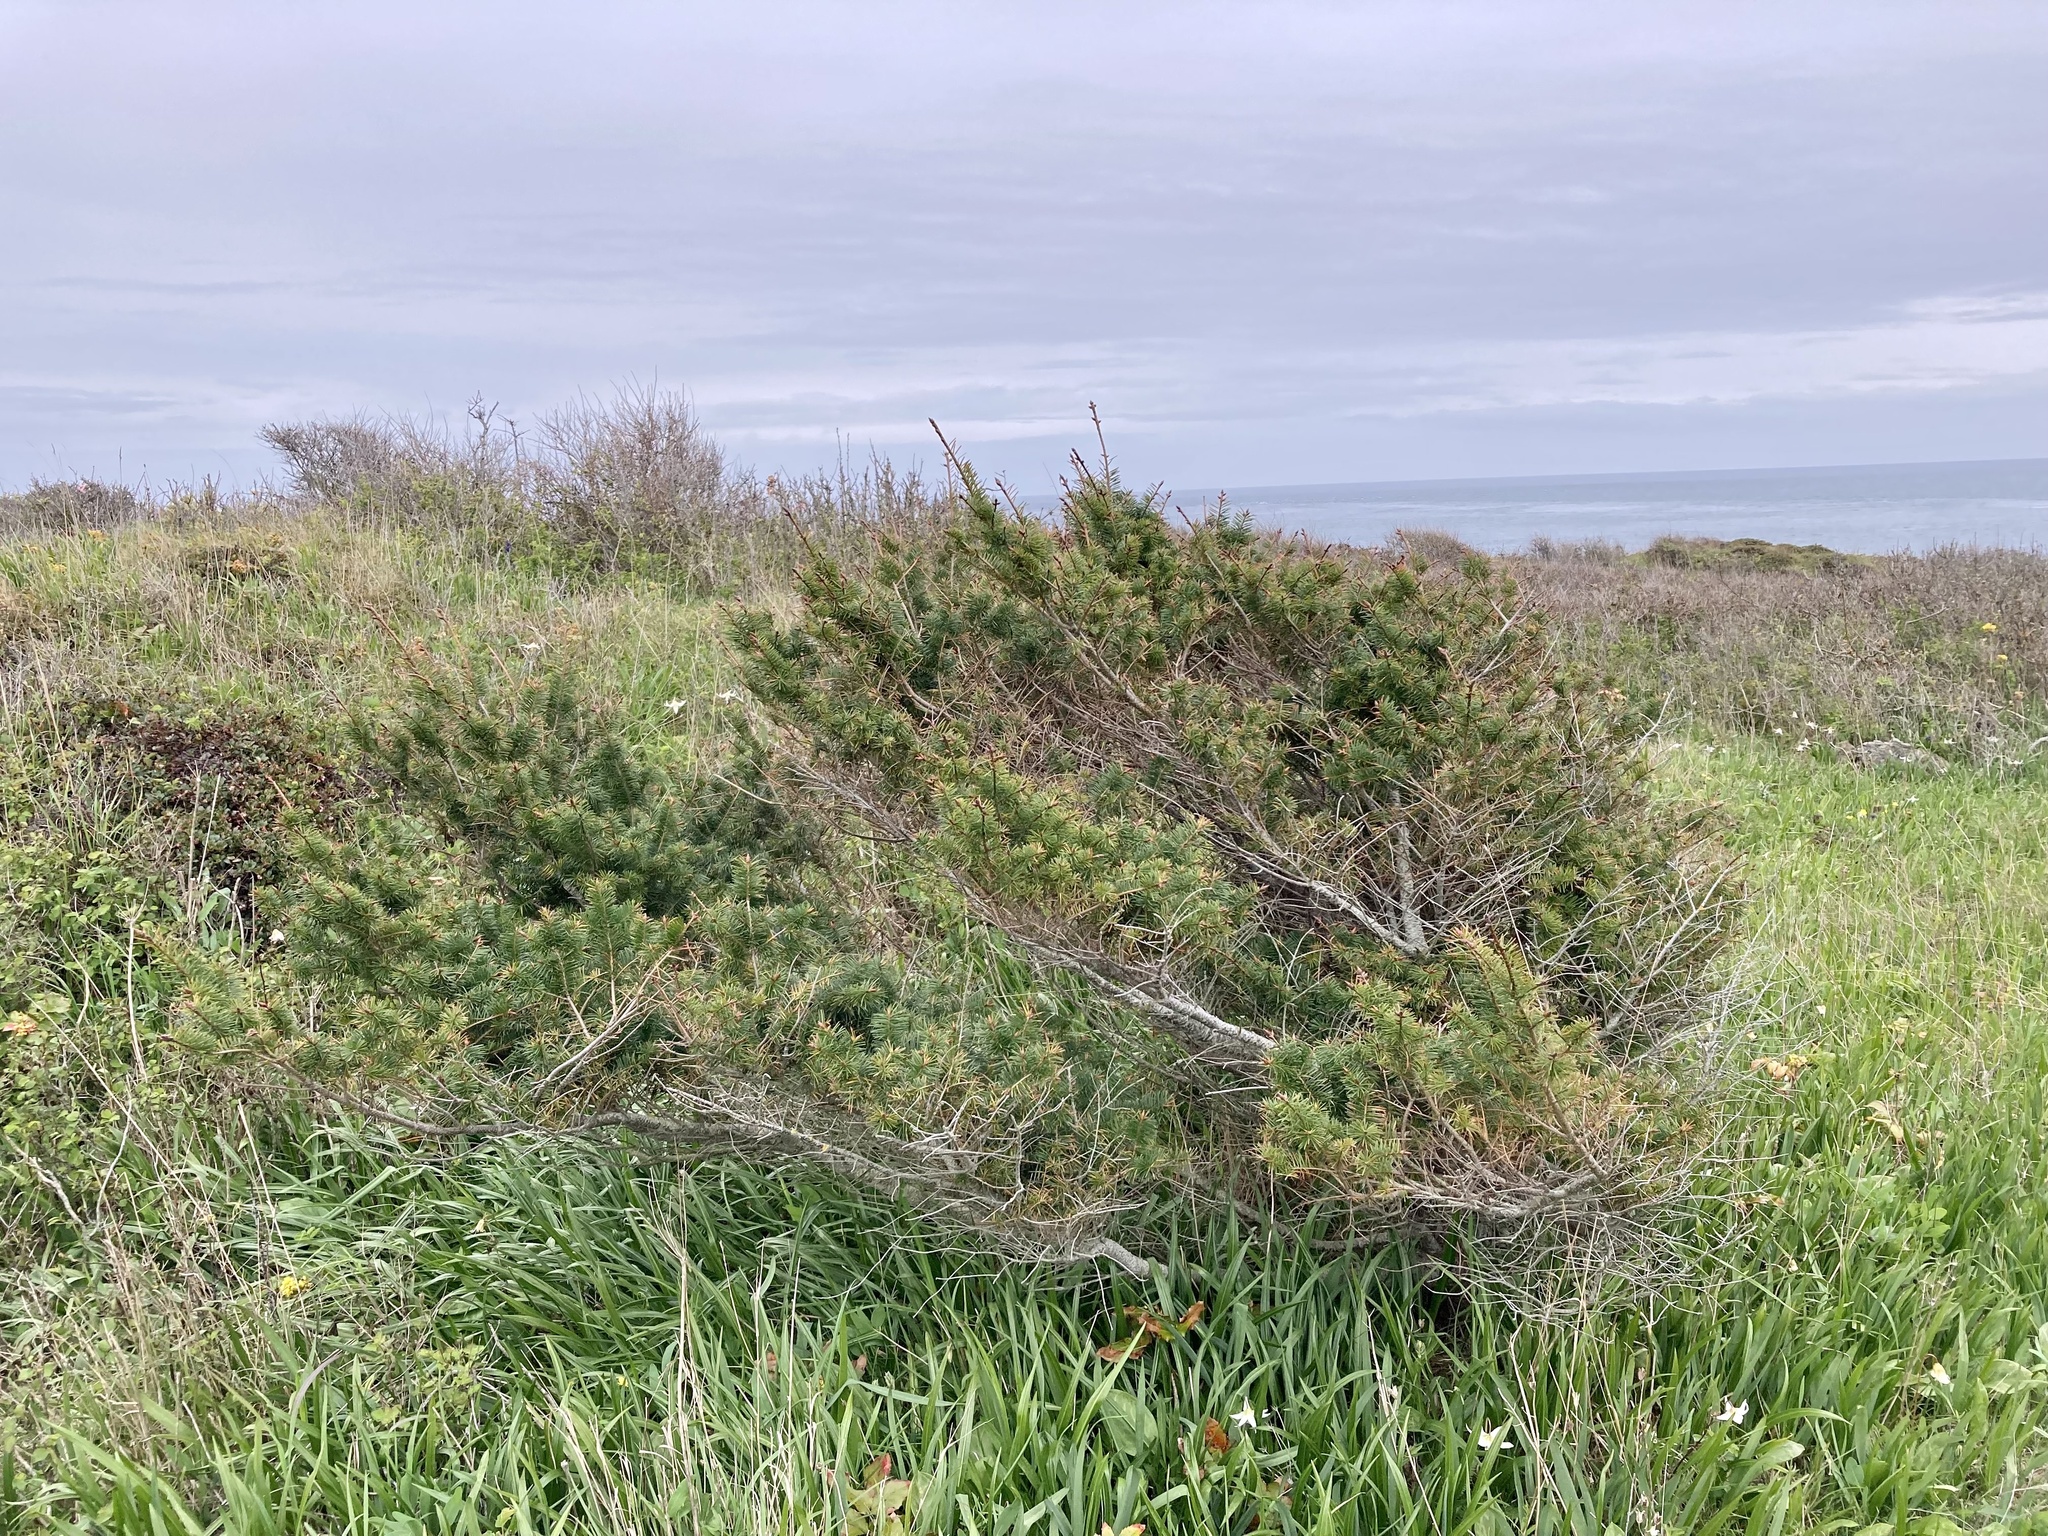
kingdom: Plantae
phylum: Tracheophyta
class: Pinopsida
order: Pinales
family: Pinaceae
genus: Pseudotsuga
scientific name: Pseudotsuga menziesii
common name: Douglas fir
